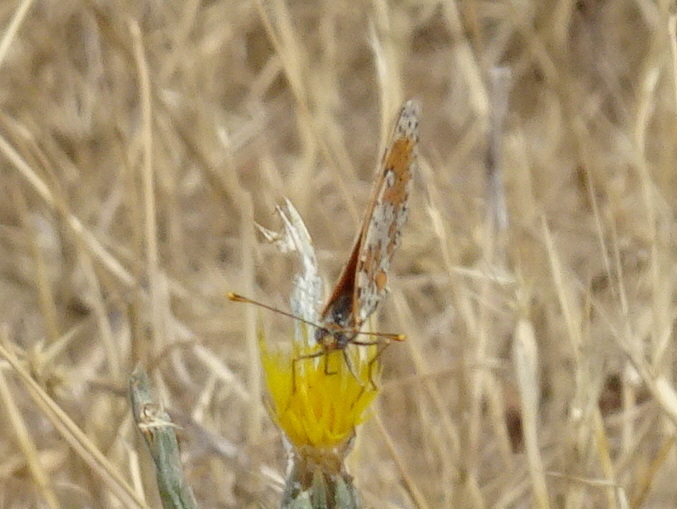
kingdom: Animalia
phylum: Arthropoda
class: Insecta
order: Lepidoptera
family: Nymphalidae
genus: Melitaea
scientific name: Melitaea didyma
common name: Spotted fritillary
